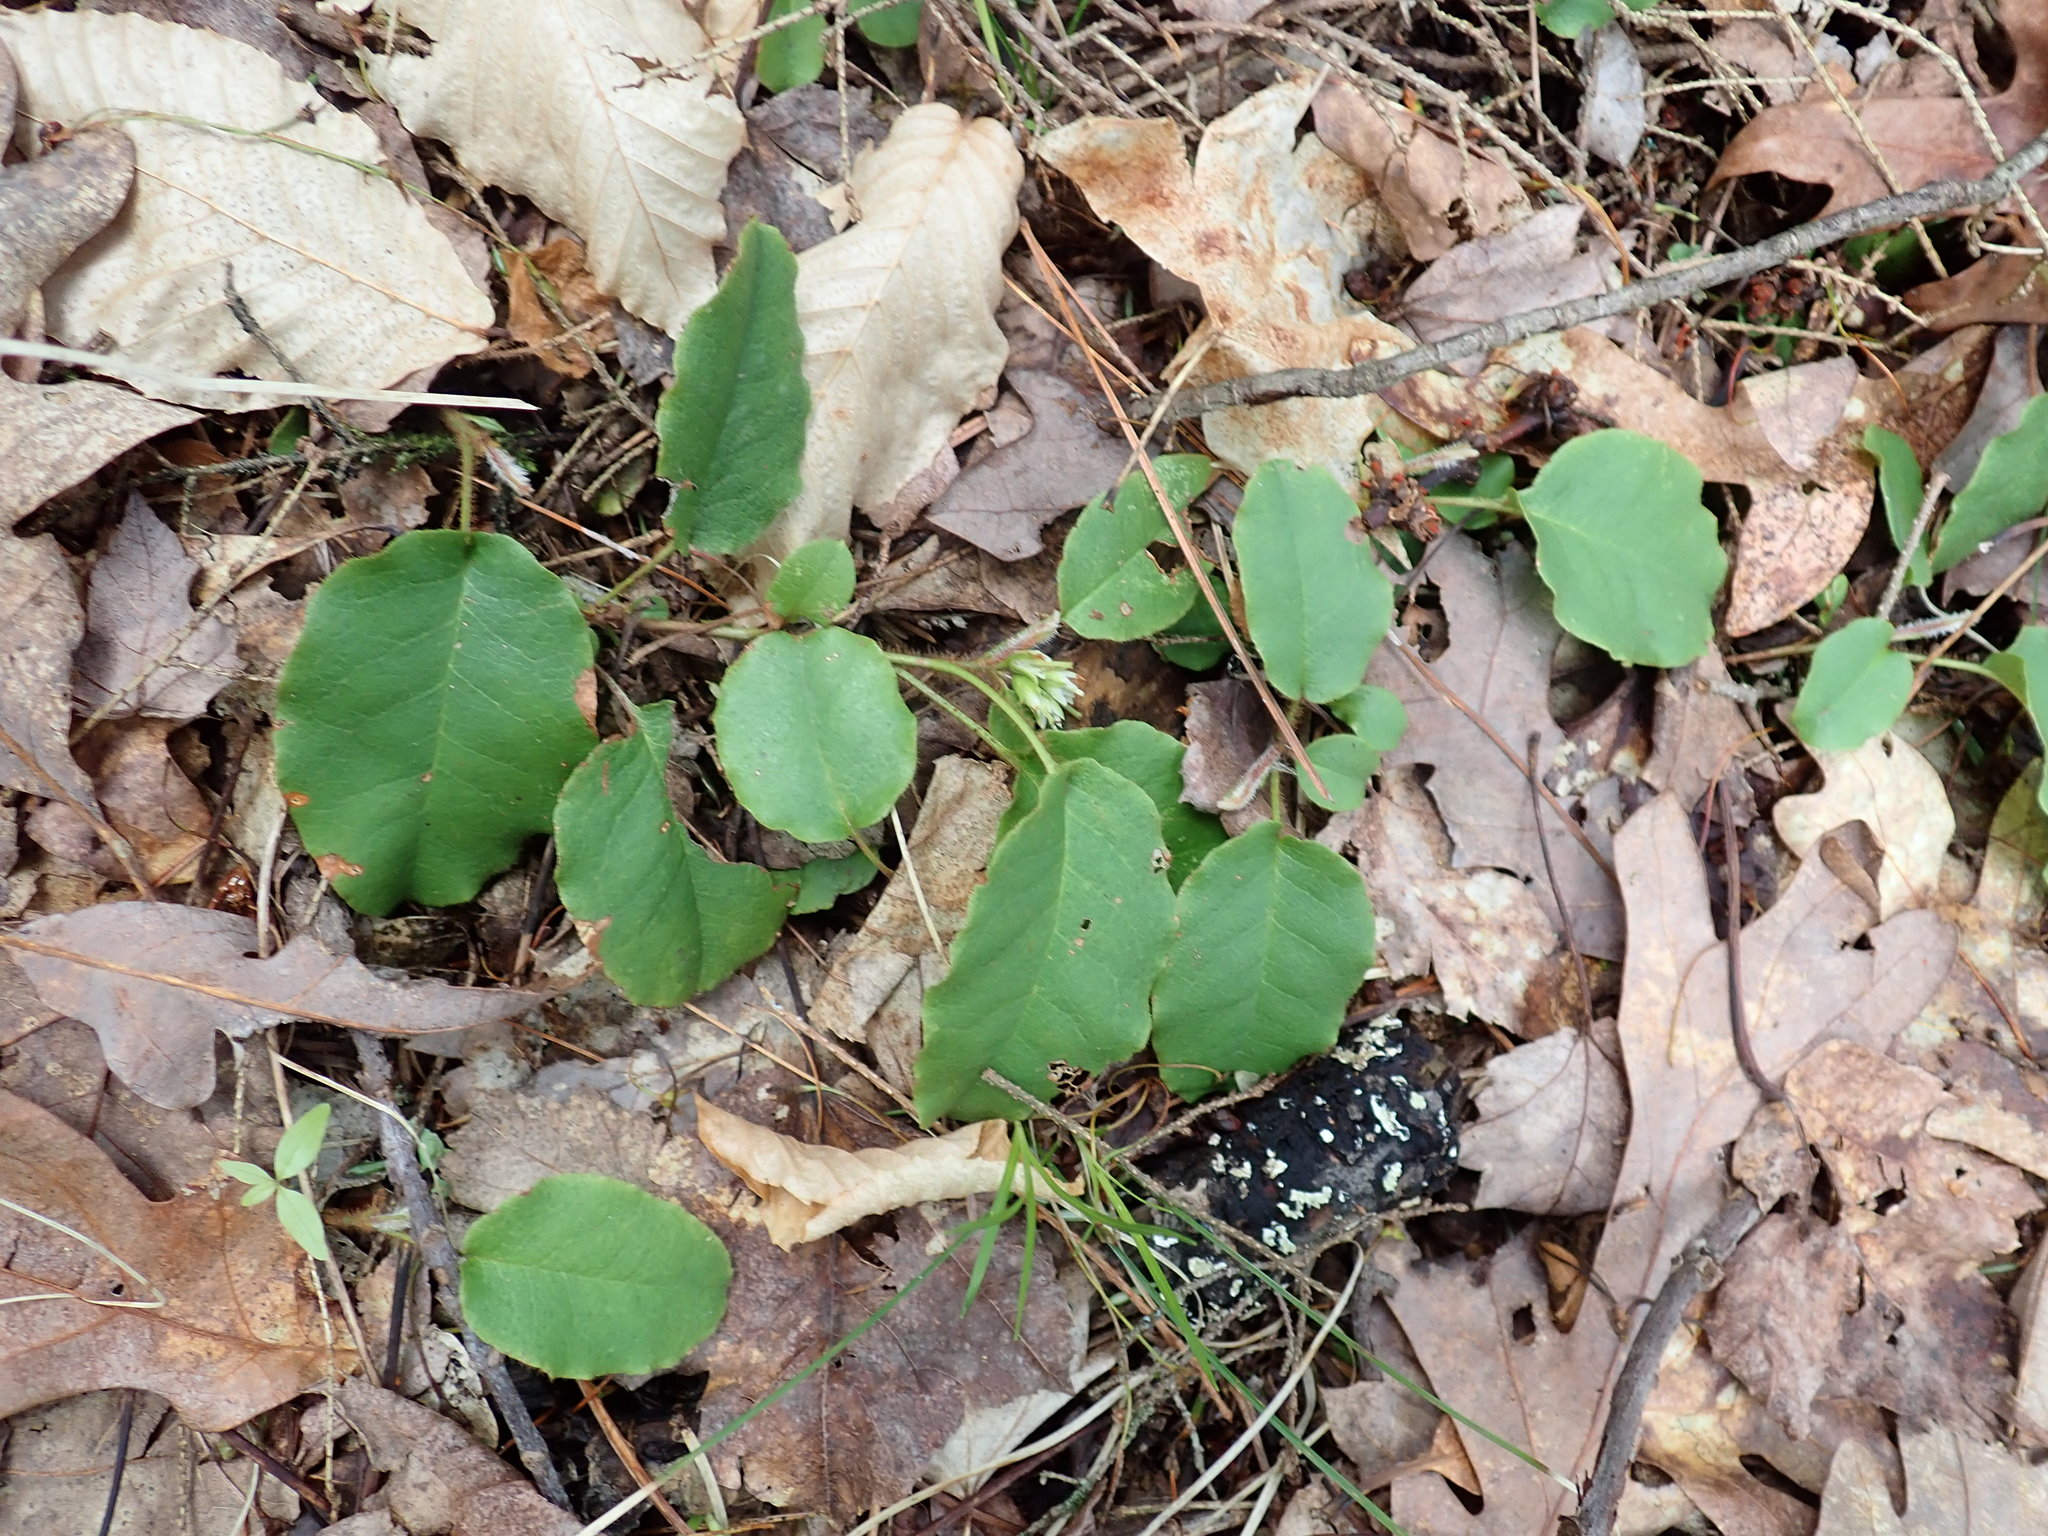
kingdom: Plantae
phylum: Tracheophyta
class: Magnoliopsida
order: Ericales
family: Ericaceae
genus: Epigaea
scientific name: Epigaea repens
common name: Gravelroot
